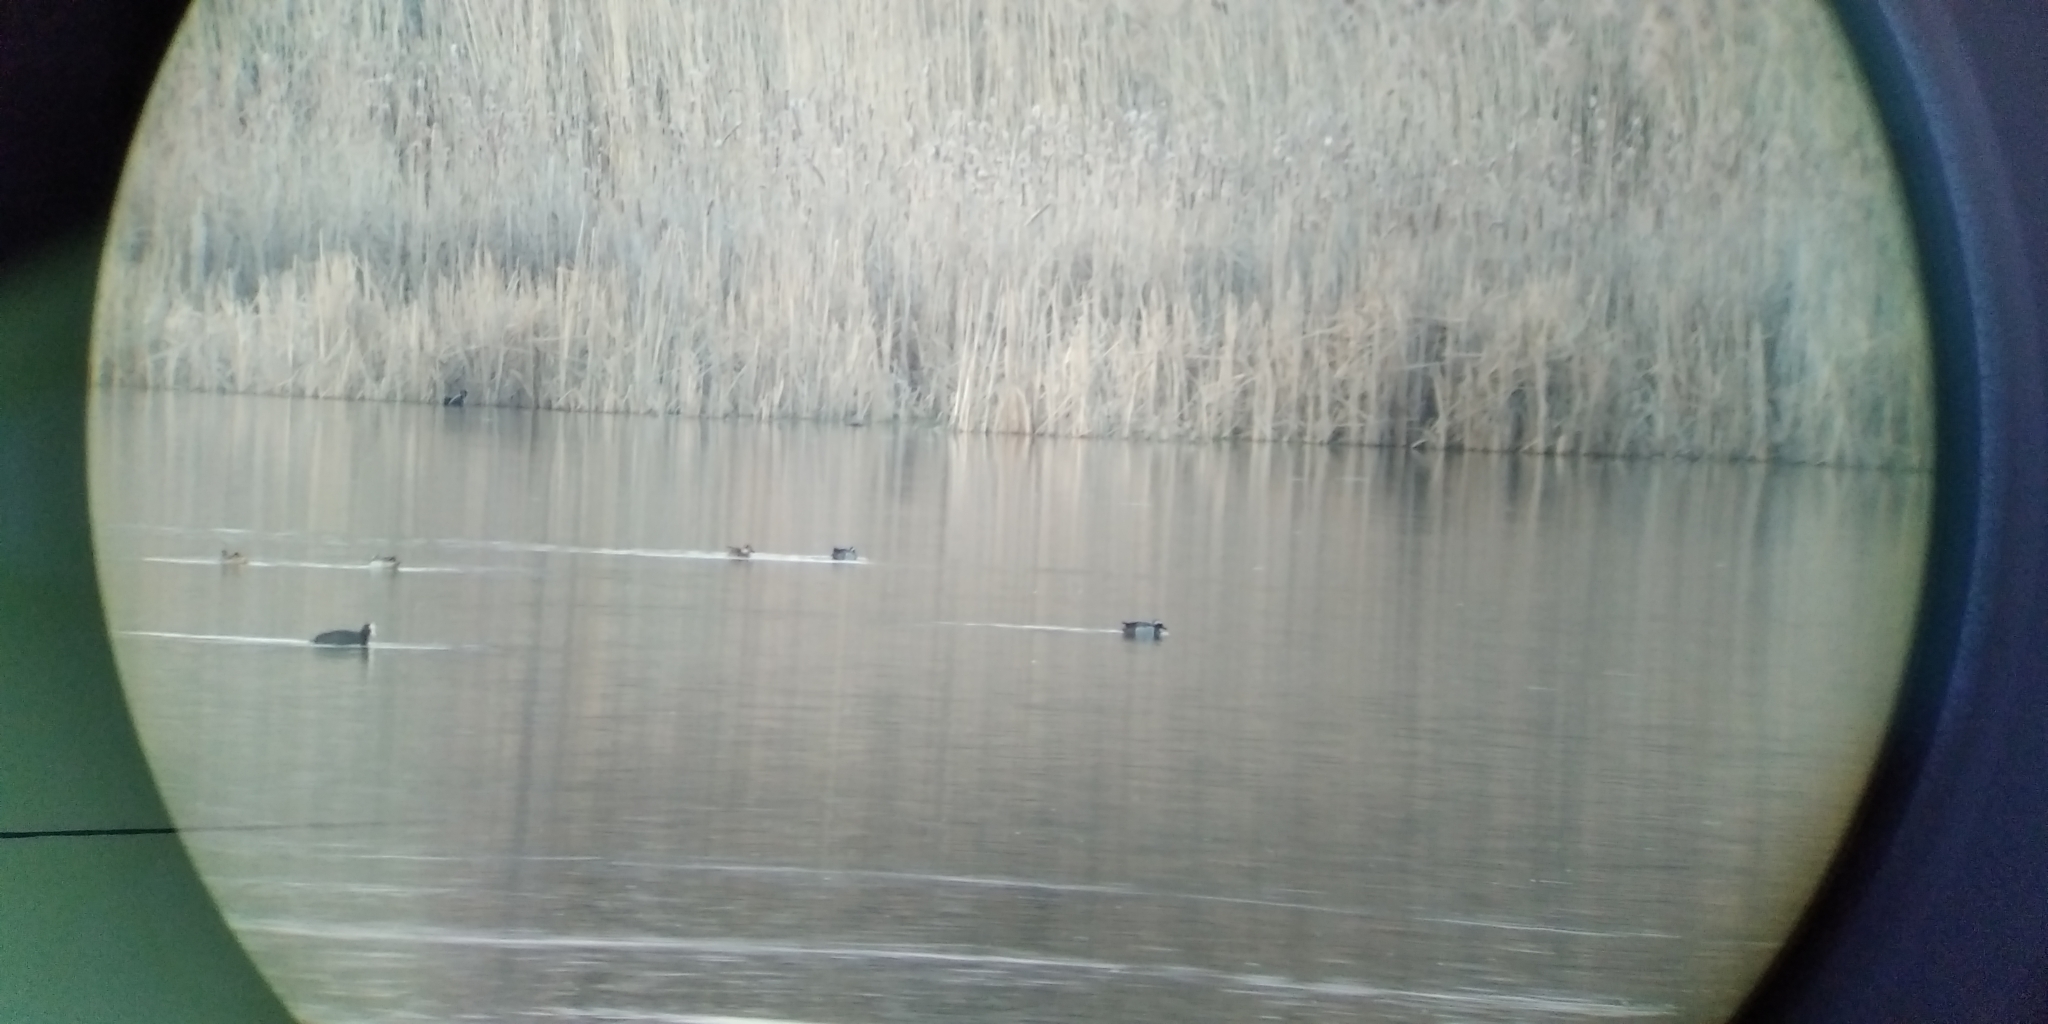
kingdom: Animalia
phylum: Chordata
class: Aves
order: Anseriformes
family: Anatidae
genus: Spatula
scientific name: Spatula querquedula
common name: Garganey
